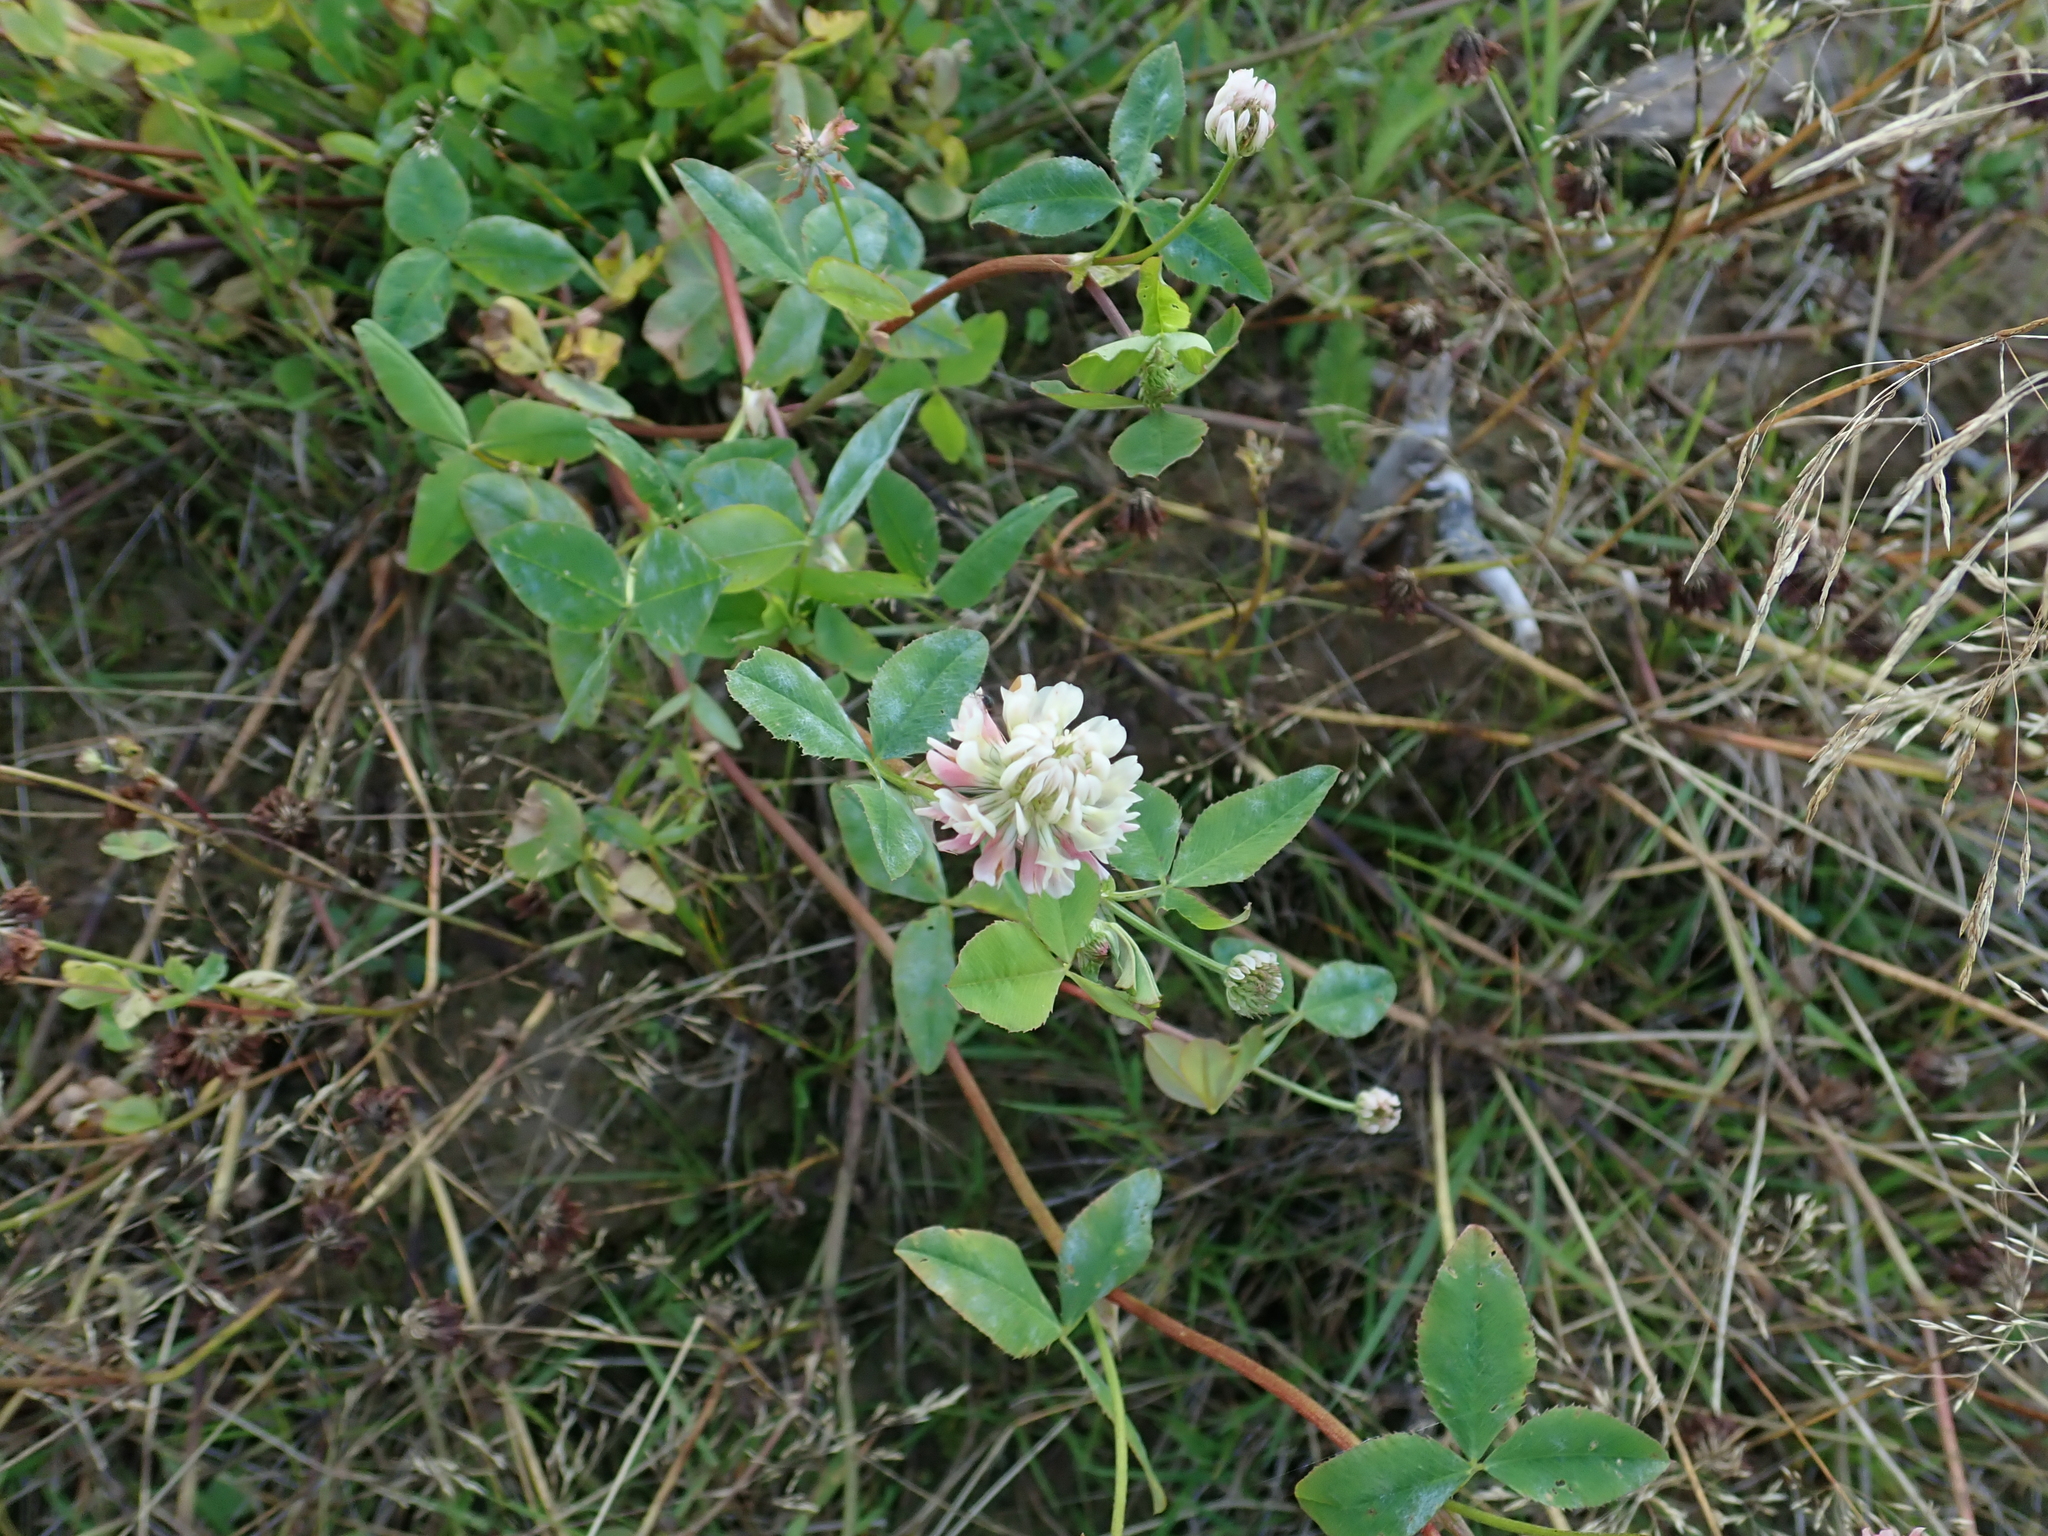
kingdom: Plantae
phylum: Tracheophyta
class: Magnoliopsida
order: Fabales
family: Fabaceae
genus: Trifolium
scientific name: Trifolium hybridum
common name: Alsike clover
